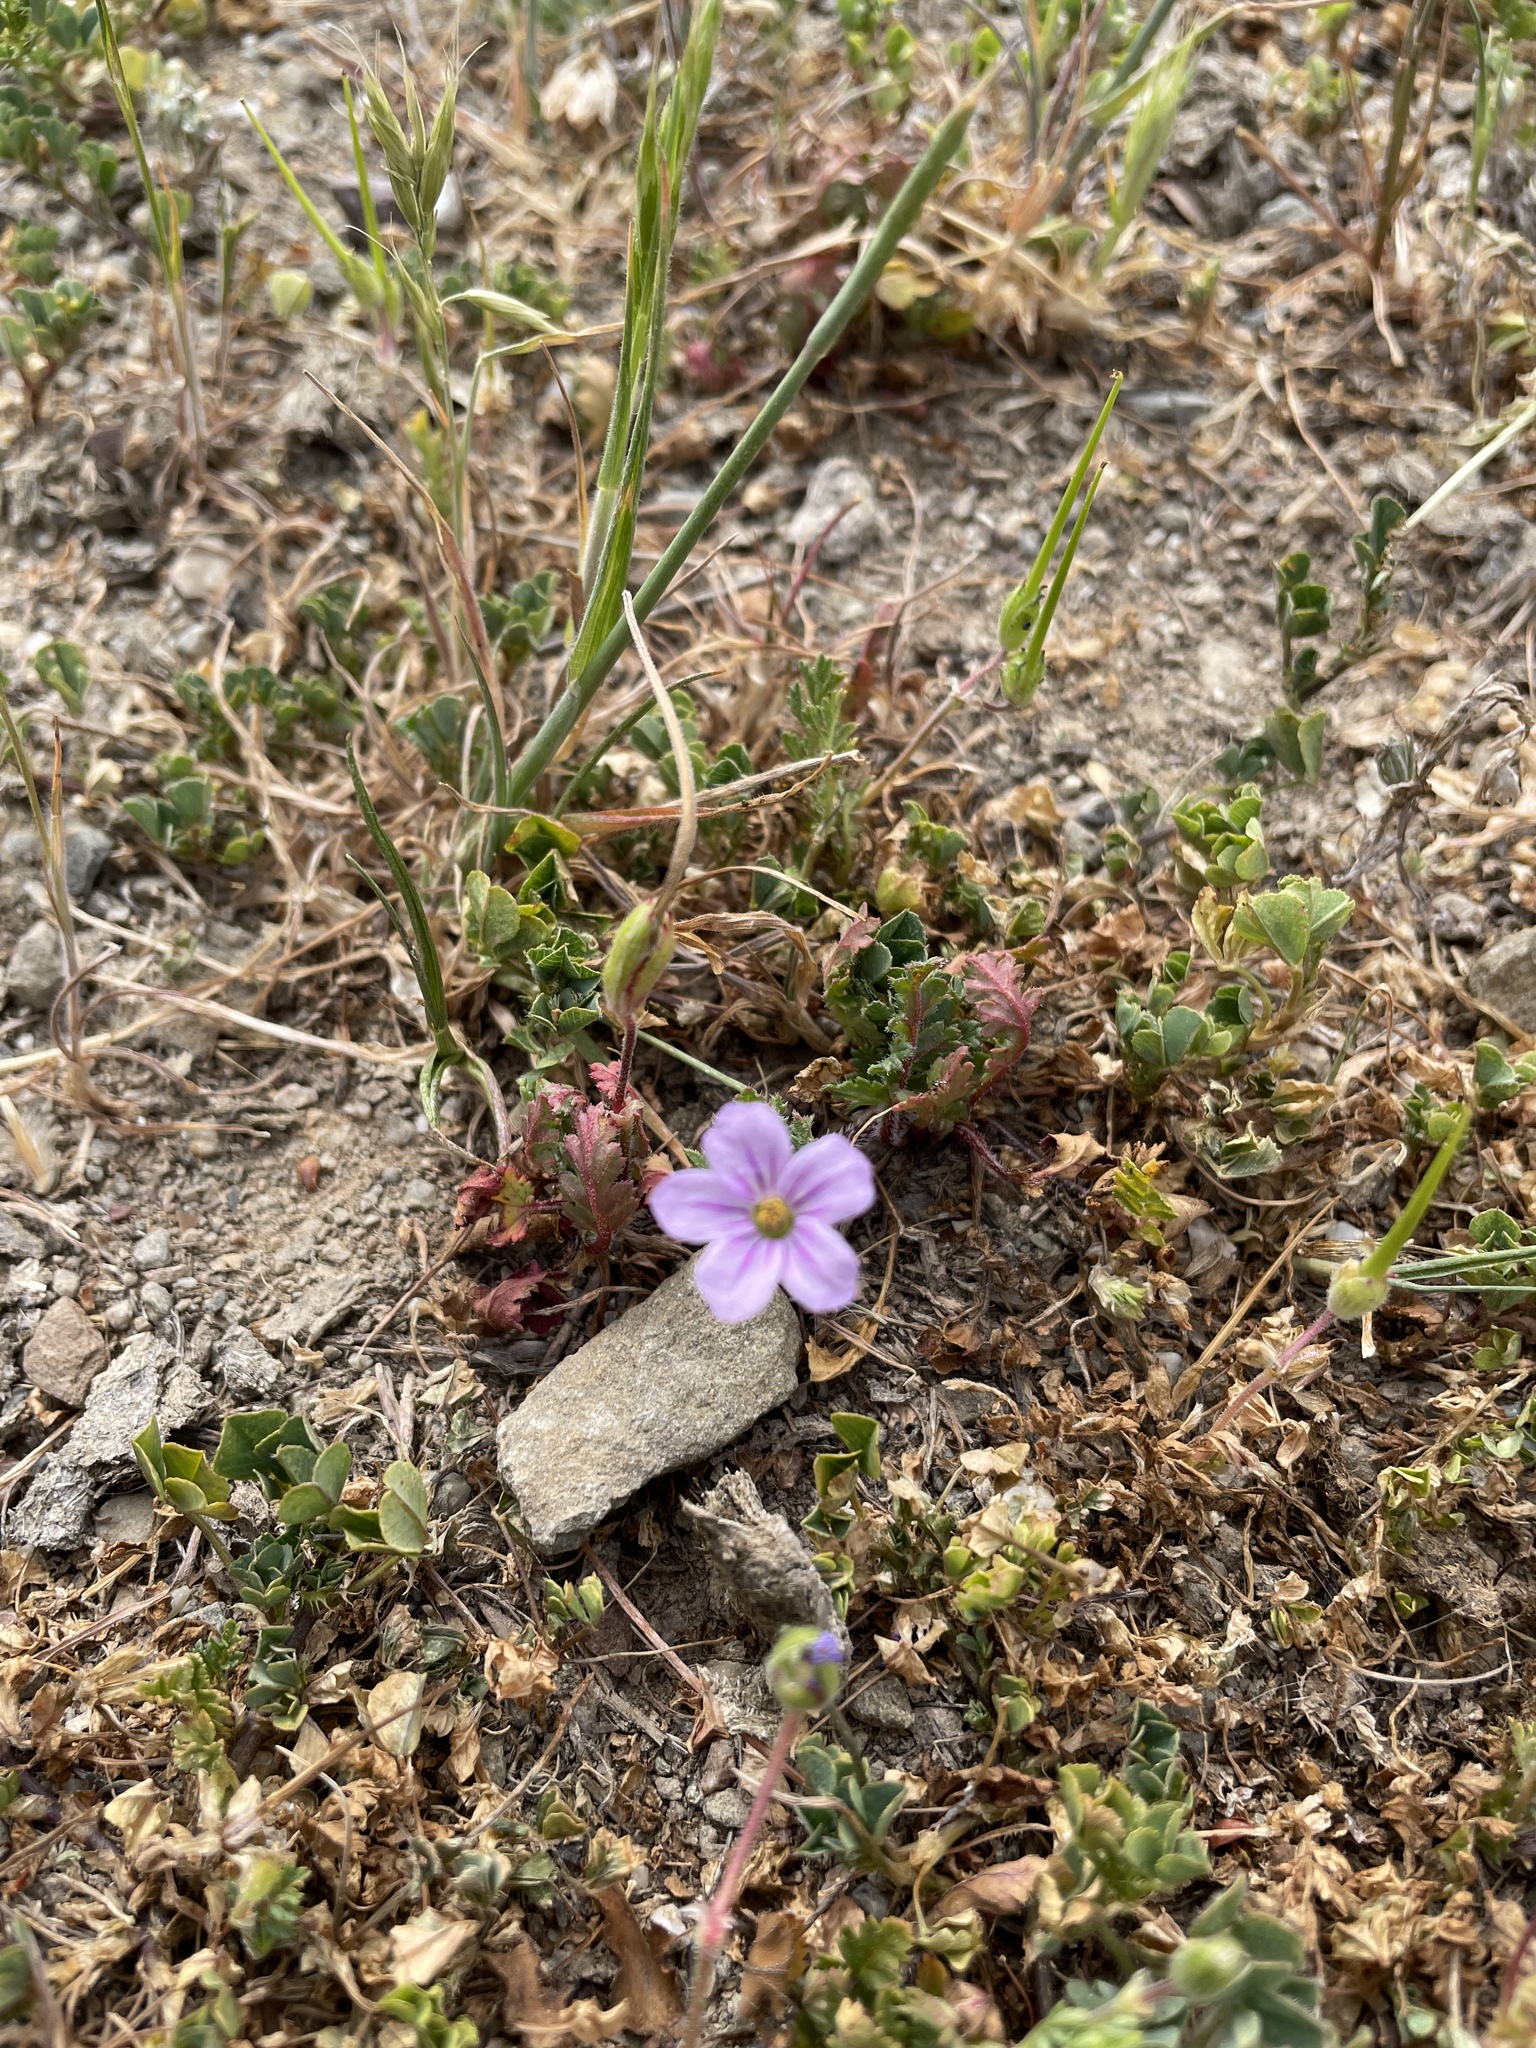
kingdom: Plantae
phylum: Tracheophyta
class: Magnoliopsida
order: Geraniales
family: Geraniaceae
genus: Erodium
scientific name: Erodium botrys
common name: Mediterranean stork's-bill
